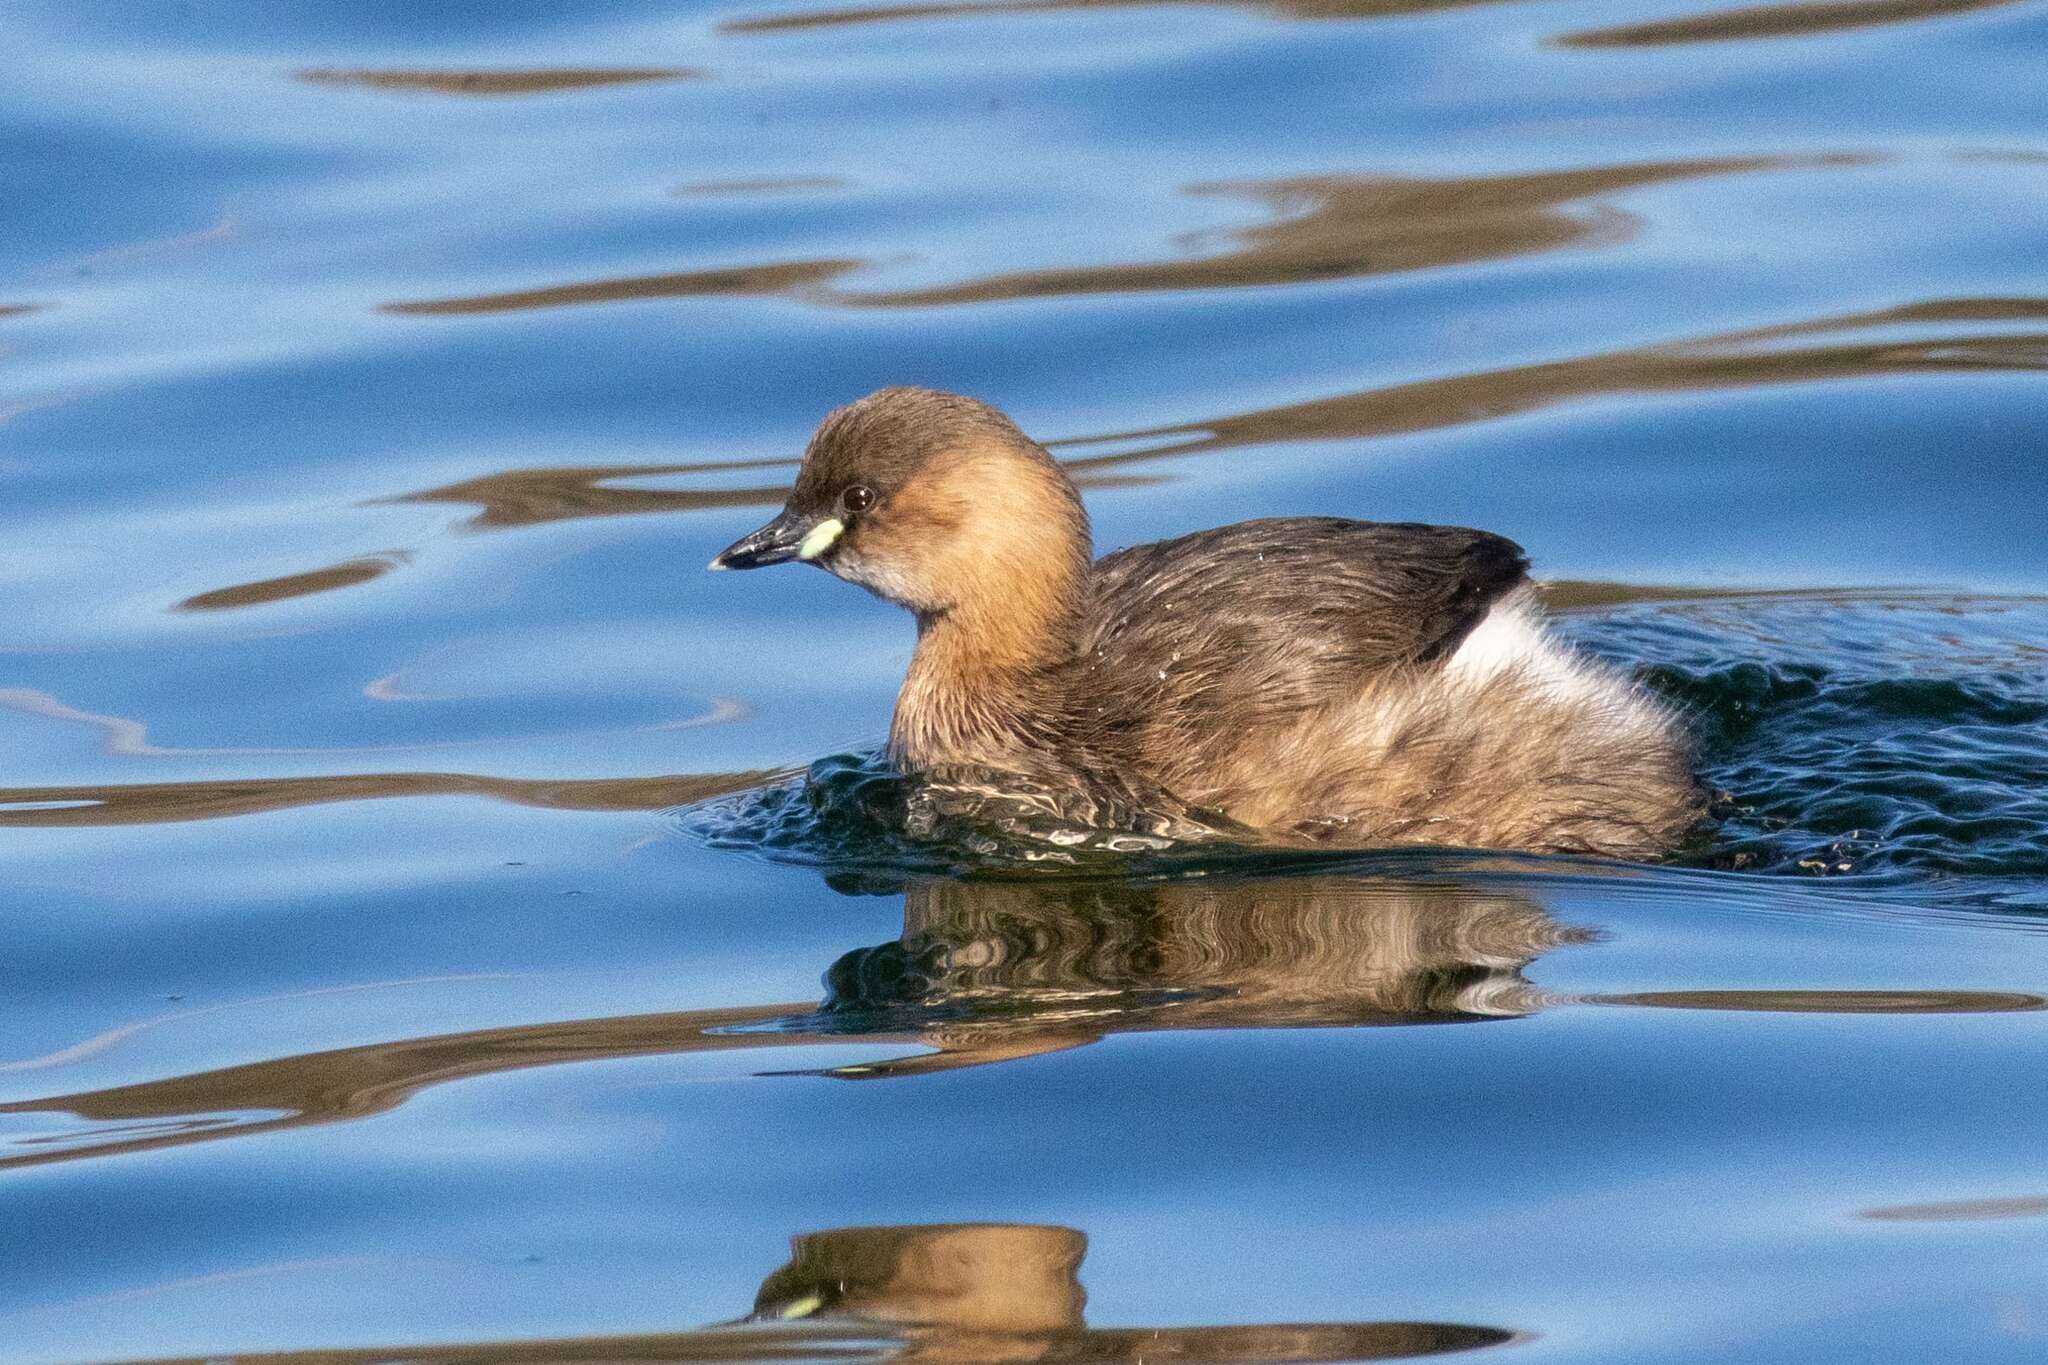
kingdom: Animalia
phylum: Chordata
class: Aves
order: Podicipediformes
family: Podicipedidae
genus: Tachybaptus
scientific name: Tachybaptus ruficollis
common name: Little grebe
